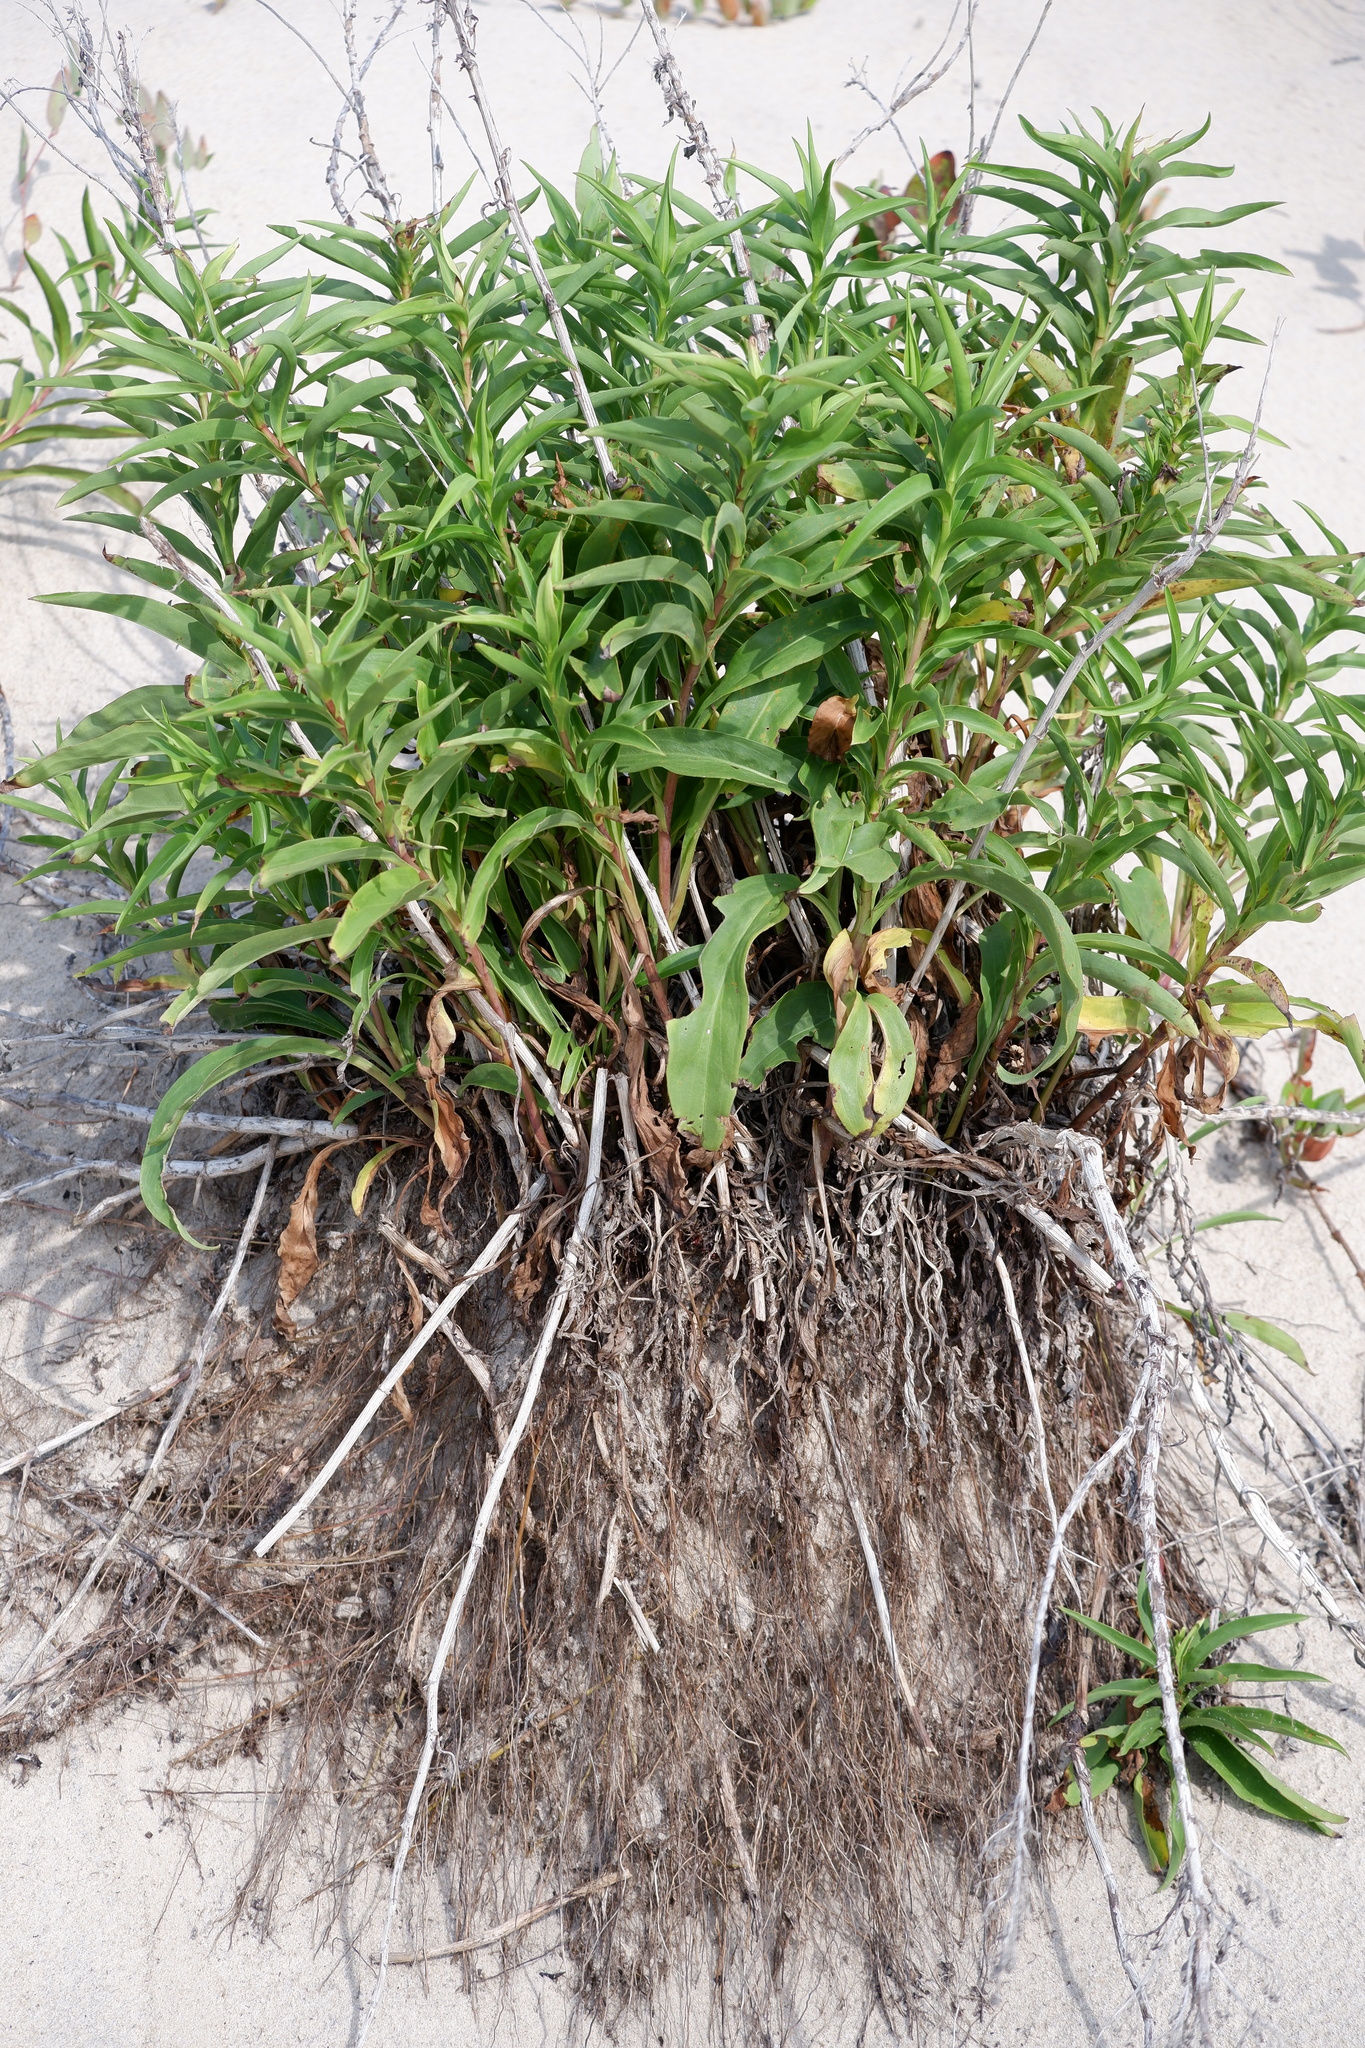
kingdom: Plantae
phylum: Tracheophyta
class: Magnoliopsida
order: Asterales
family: Asteraceae
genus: Solidago
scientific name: Solidago sempervirens
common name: Salt-marsh goldenrod
